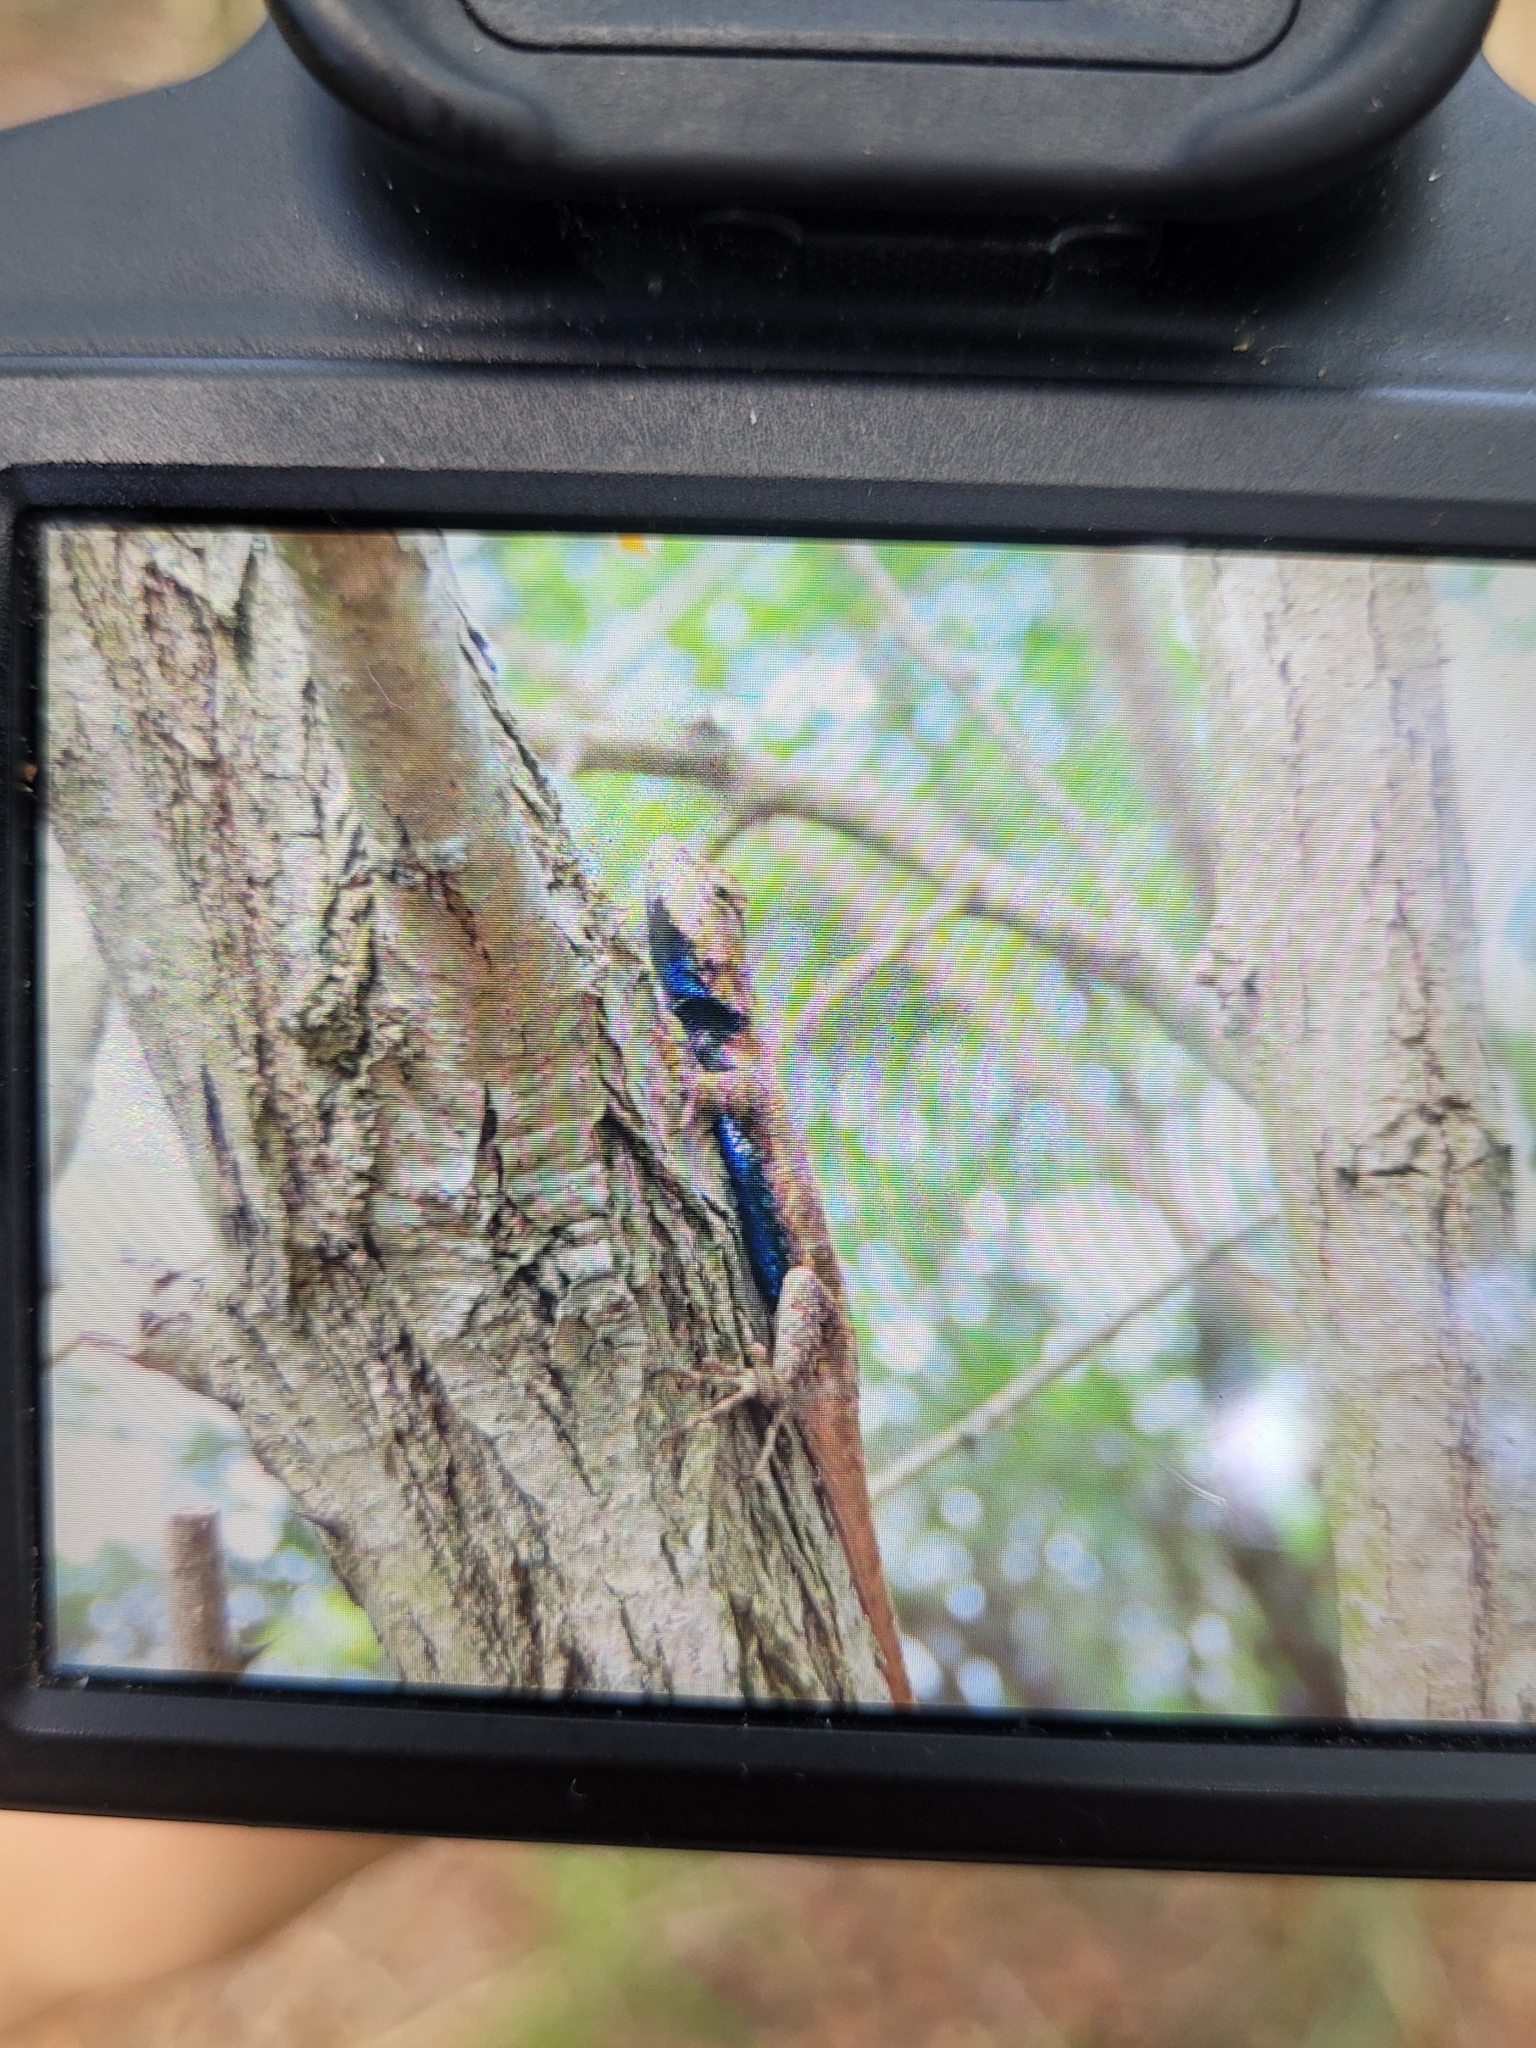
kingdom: Animalia
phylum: Chordata
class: Squamata
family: Phrynosomatidae
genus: Sceloporus
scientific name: Sceloporus undulatus
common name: Eastern fence lizard
